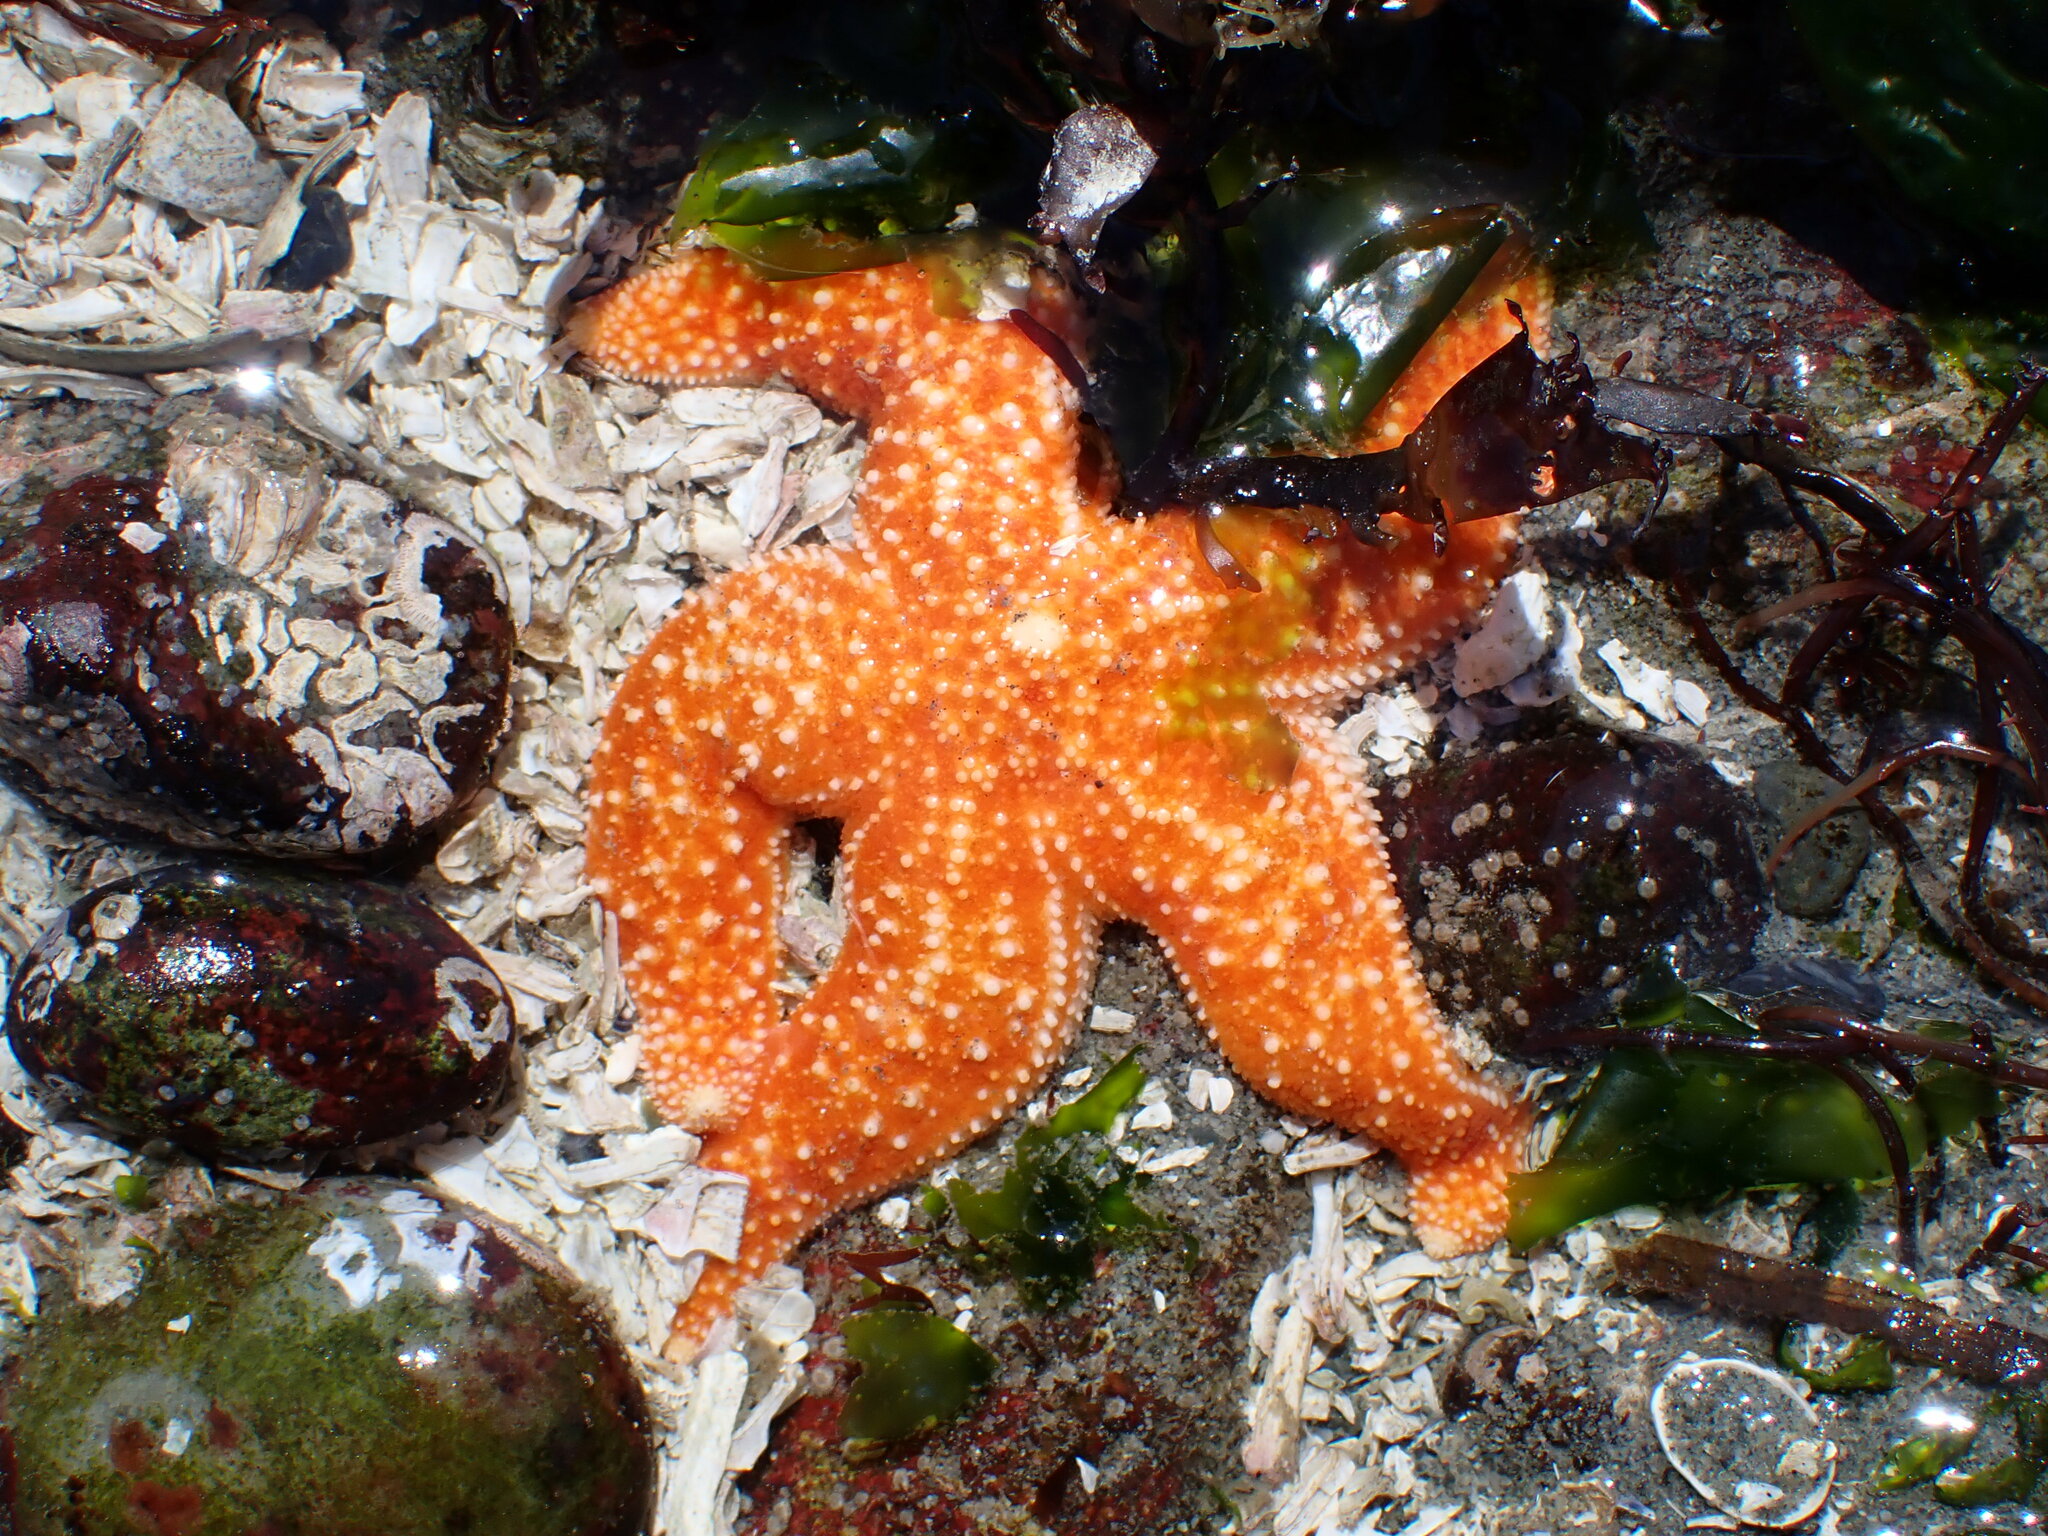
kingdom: Animalia
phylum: Echinodermata
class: Asteroidea
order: Forcipulatida
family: Asteriidae
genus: Evasterias
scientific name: Evasterias troschelii
